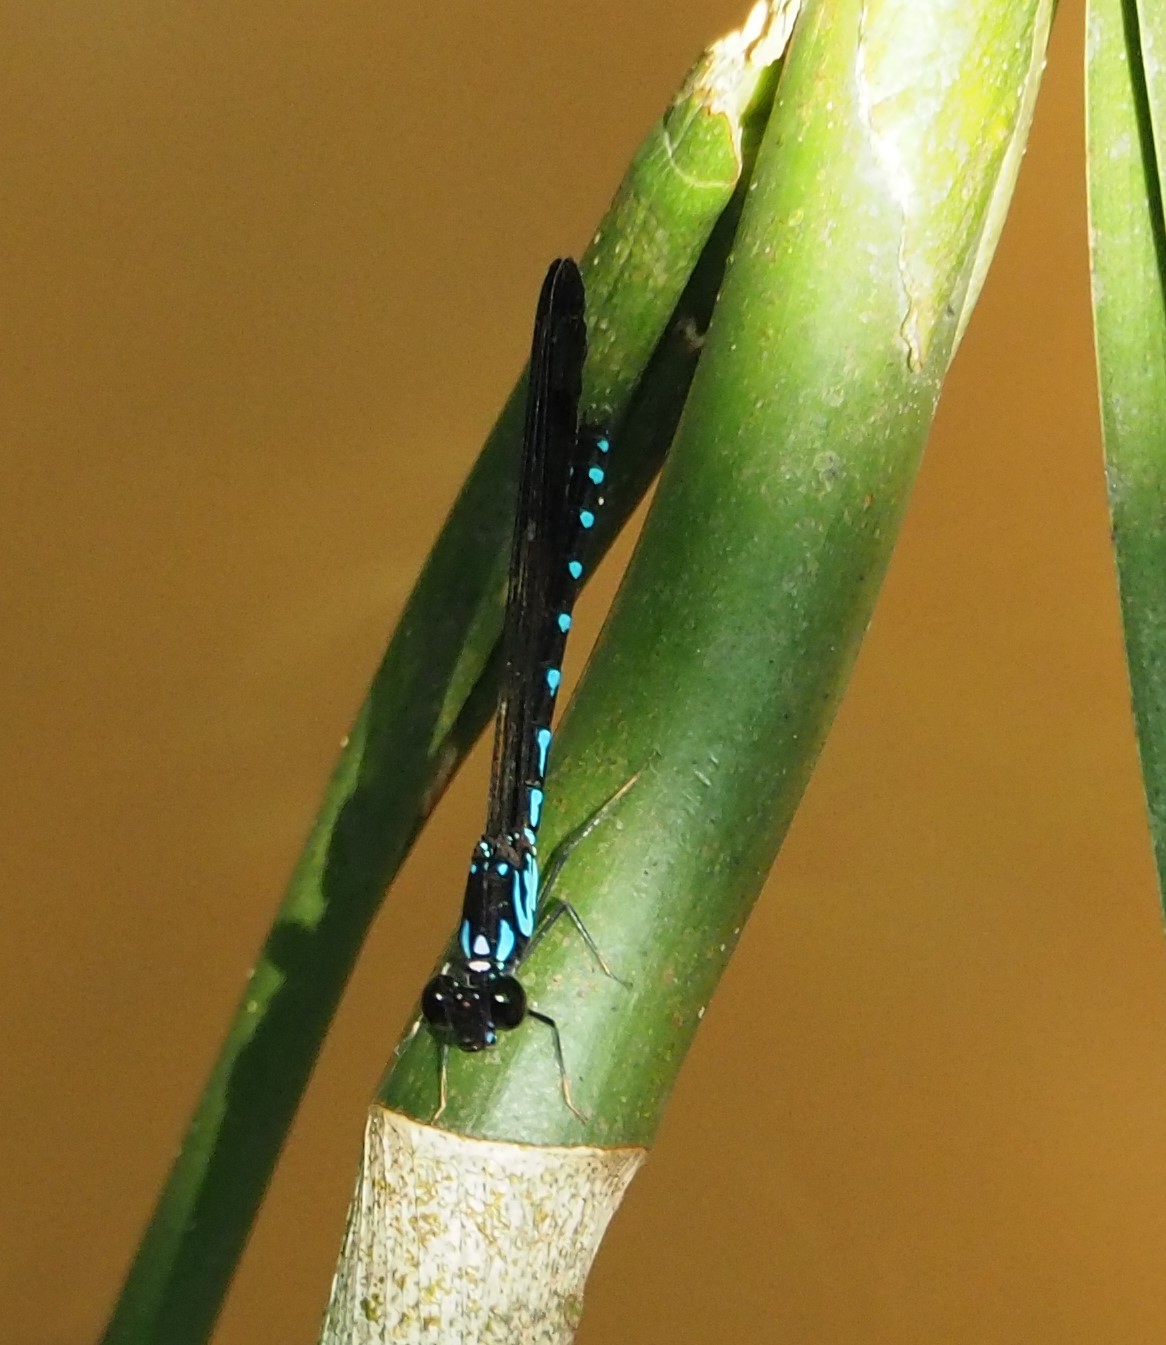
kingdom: Animalia
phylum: Arthropoda
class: Insecta
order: Odonata
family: Chlorocyphidae
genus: Heliocypha
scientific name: Heliocypha perforata
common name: Common blue jewel
